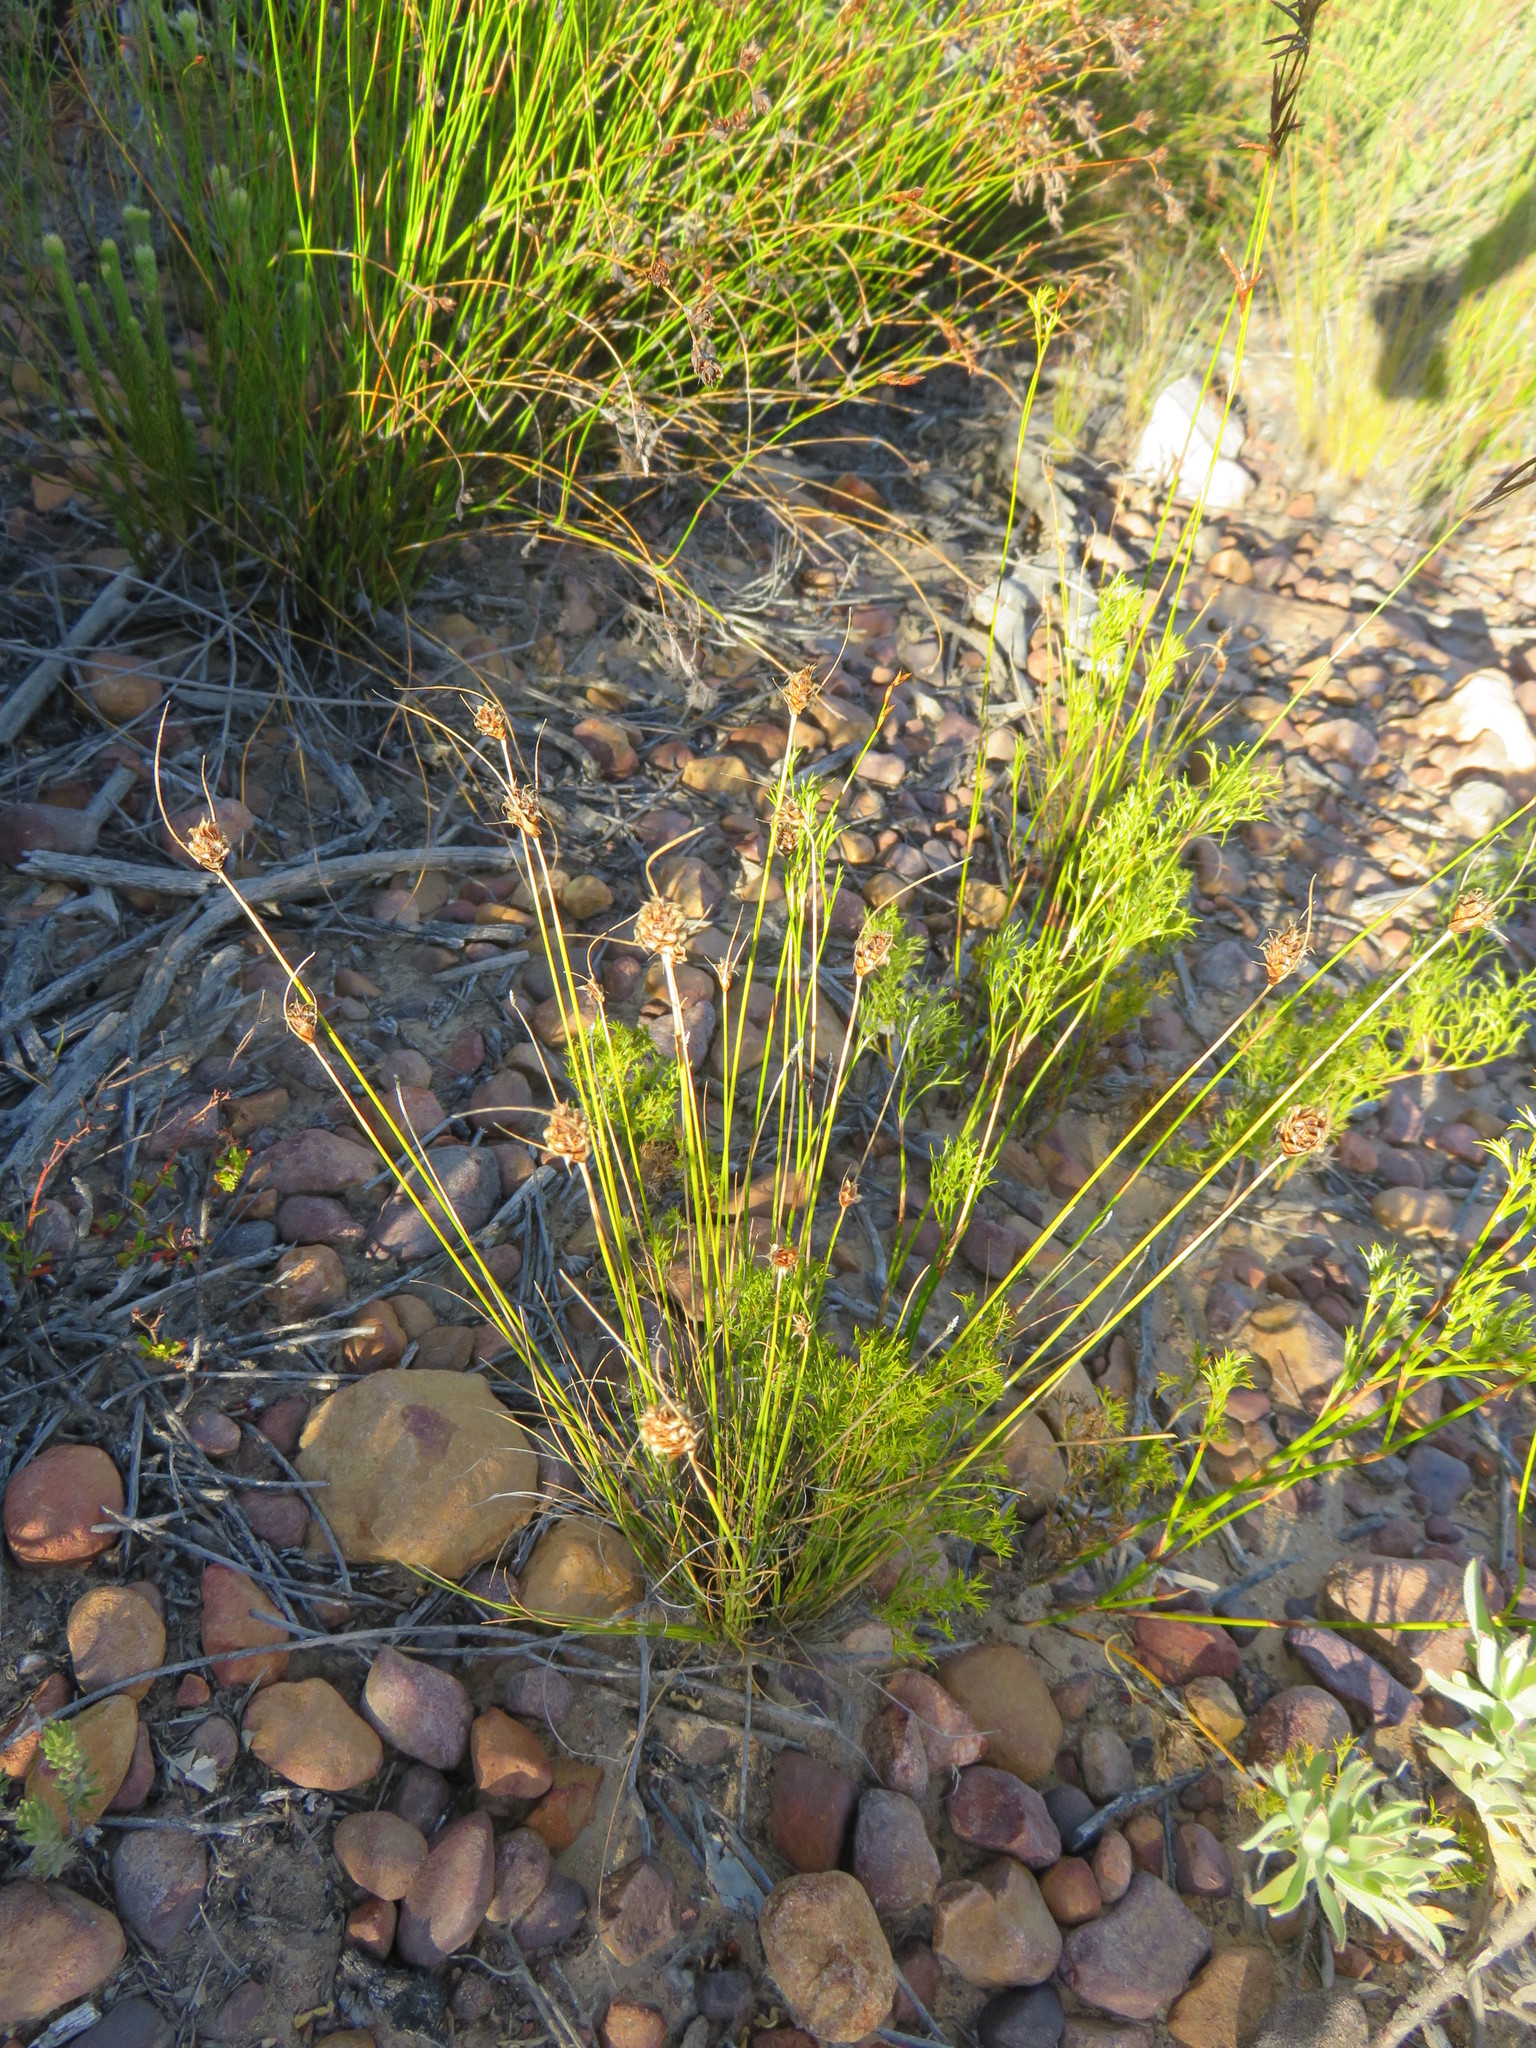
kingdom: Plantae
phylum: Tracheophyta
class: Liliopsida
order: Poales
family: Cyperaceae
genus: Ficinia
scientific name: Ficinia nigrescens
